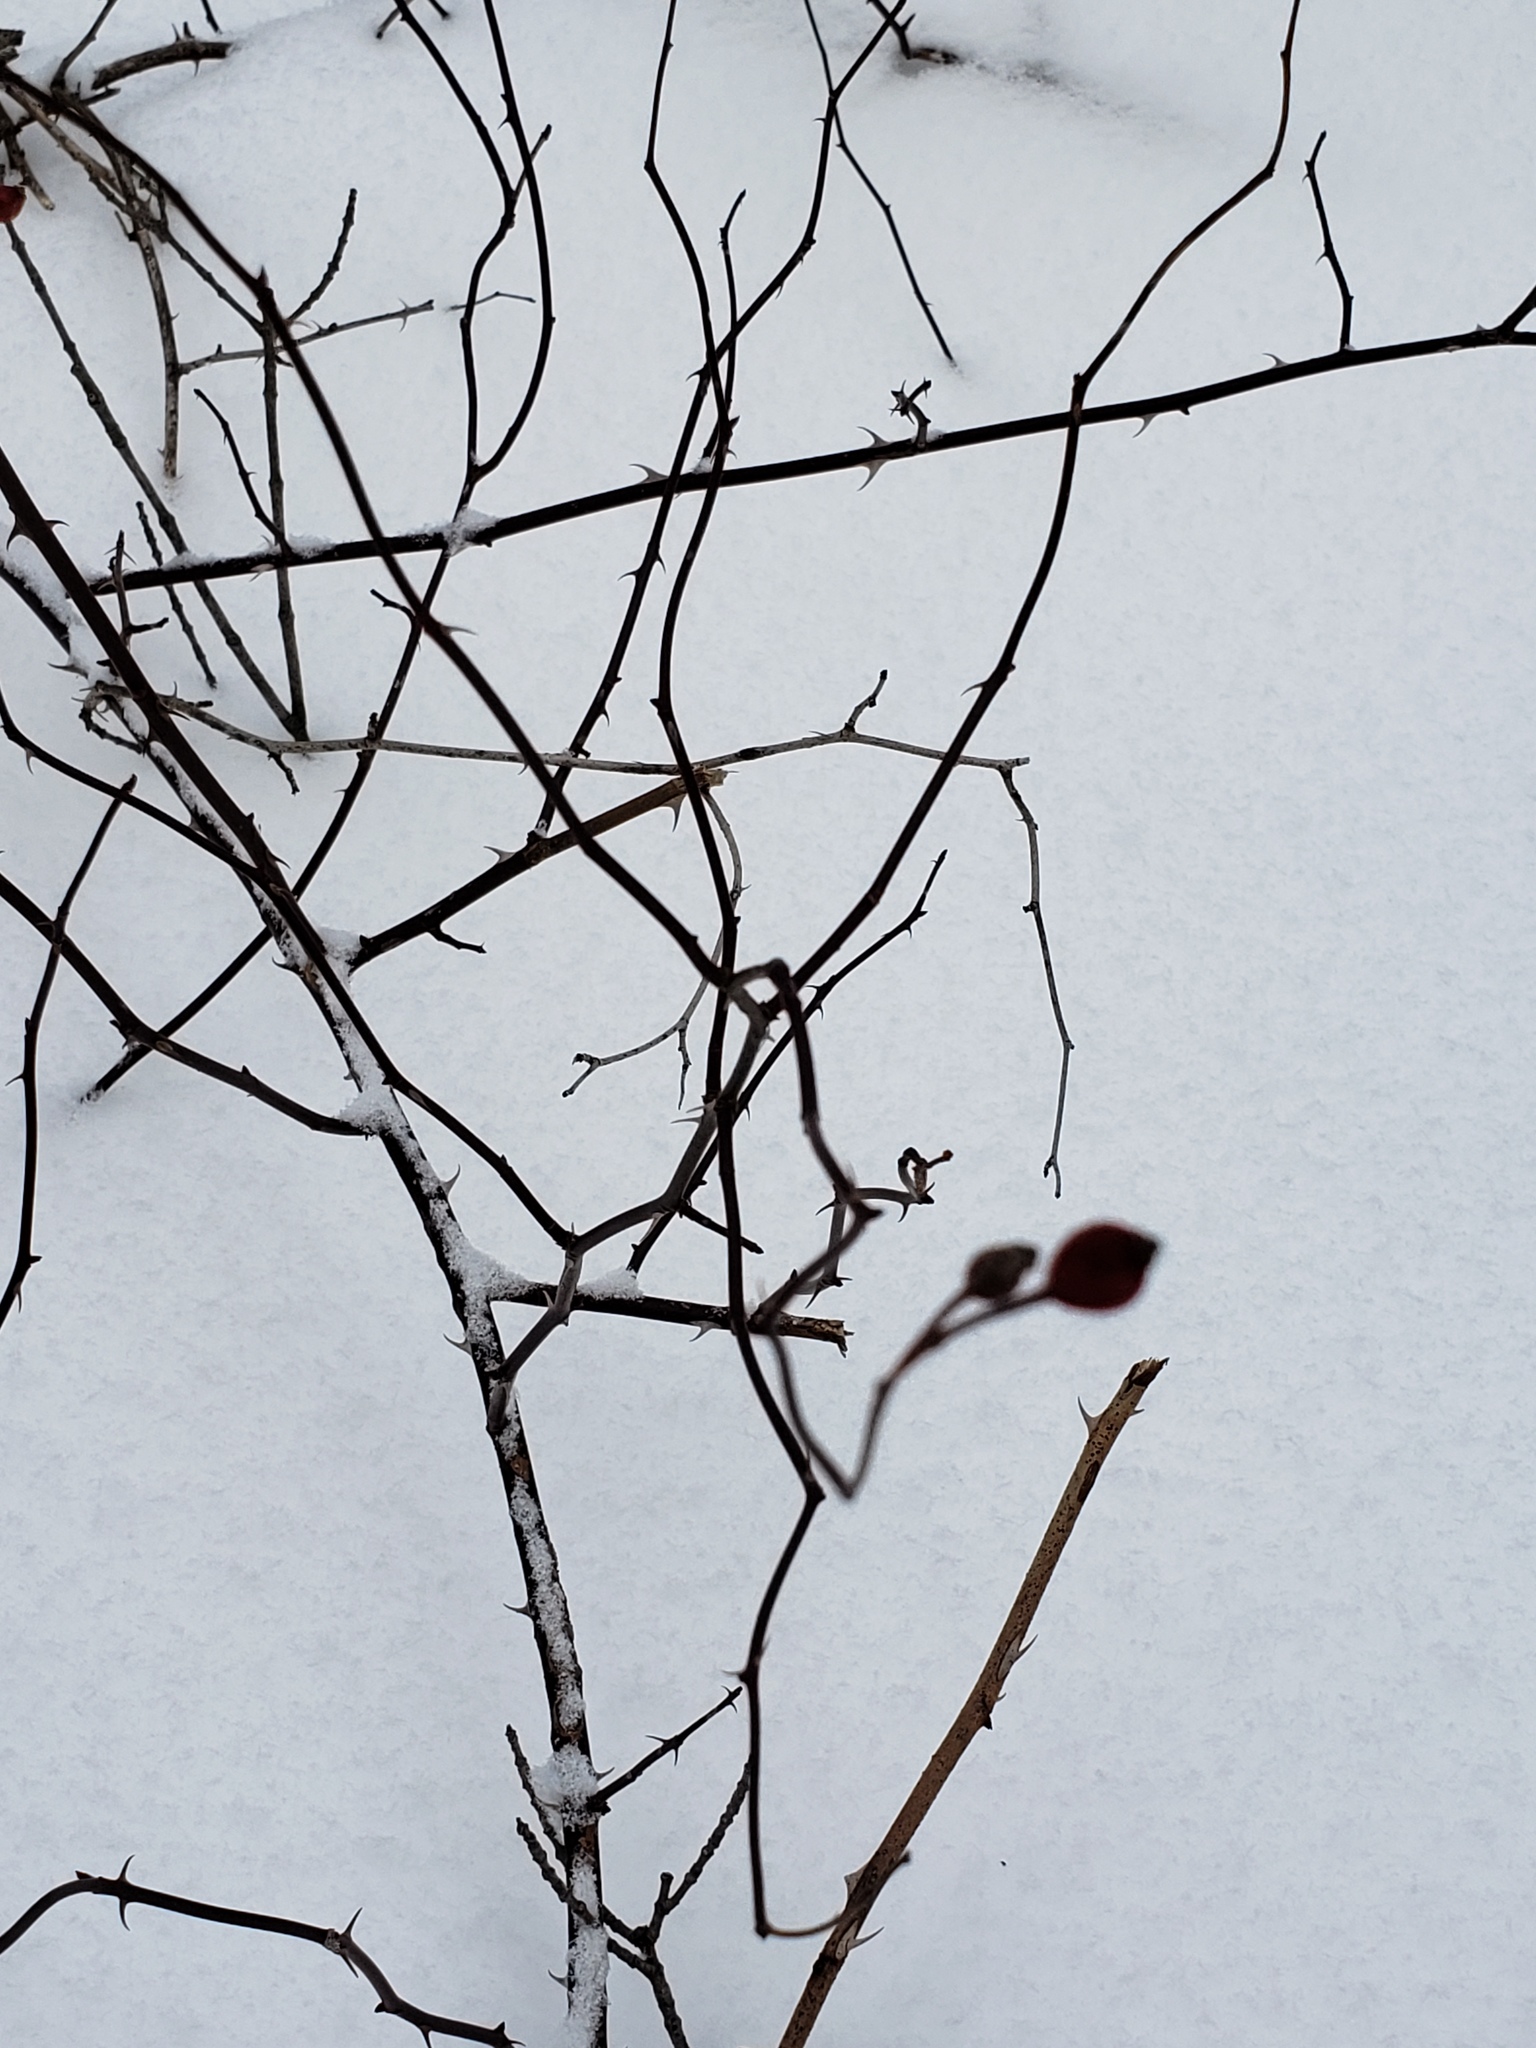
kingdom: Plantae
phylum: Tracheophyta
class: Magnoliopsida
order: Rosales
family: Rosaceae
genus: Rosa
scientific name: Rosa multiflora
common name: Multiflora rose
